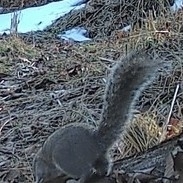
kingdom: Animalia
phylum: Chordata
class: Mammalia
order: Rodentia
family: Sciuridae
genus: Sciurus
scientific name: Sciurus carolinensis
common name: Eastern gray squirrel
